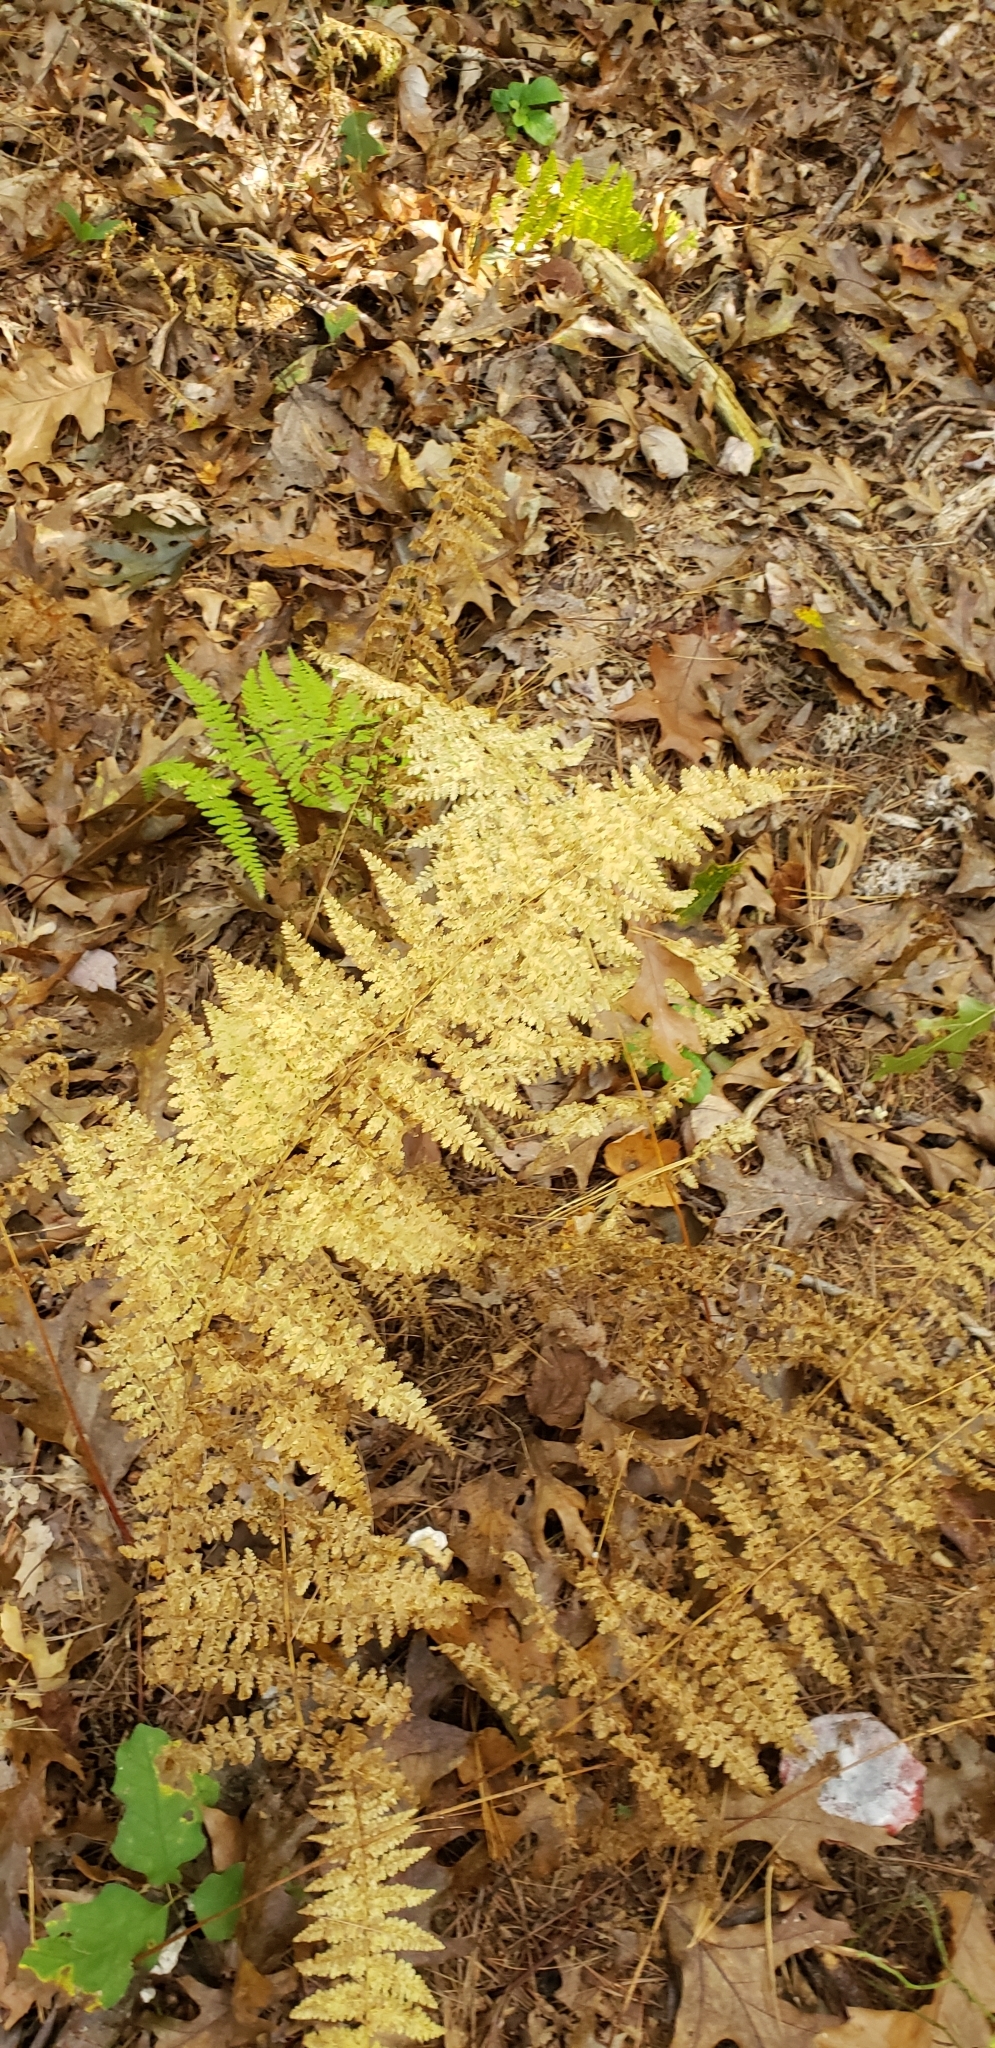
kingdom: Plantae
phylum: Tracheophyta
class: Polypodiopsida
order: Polypodiales
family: Dennstaedtiaceae
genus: Sitobolium
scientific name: Sitobolium punctilobum
